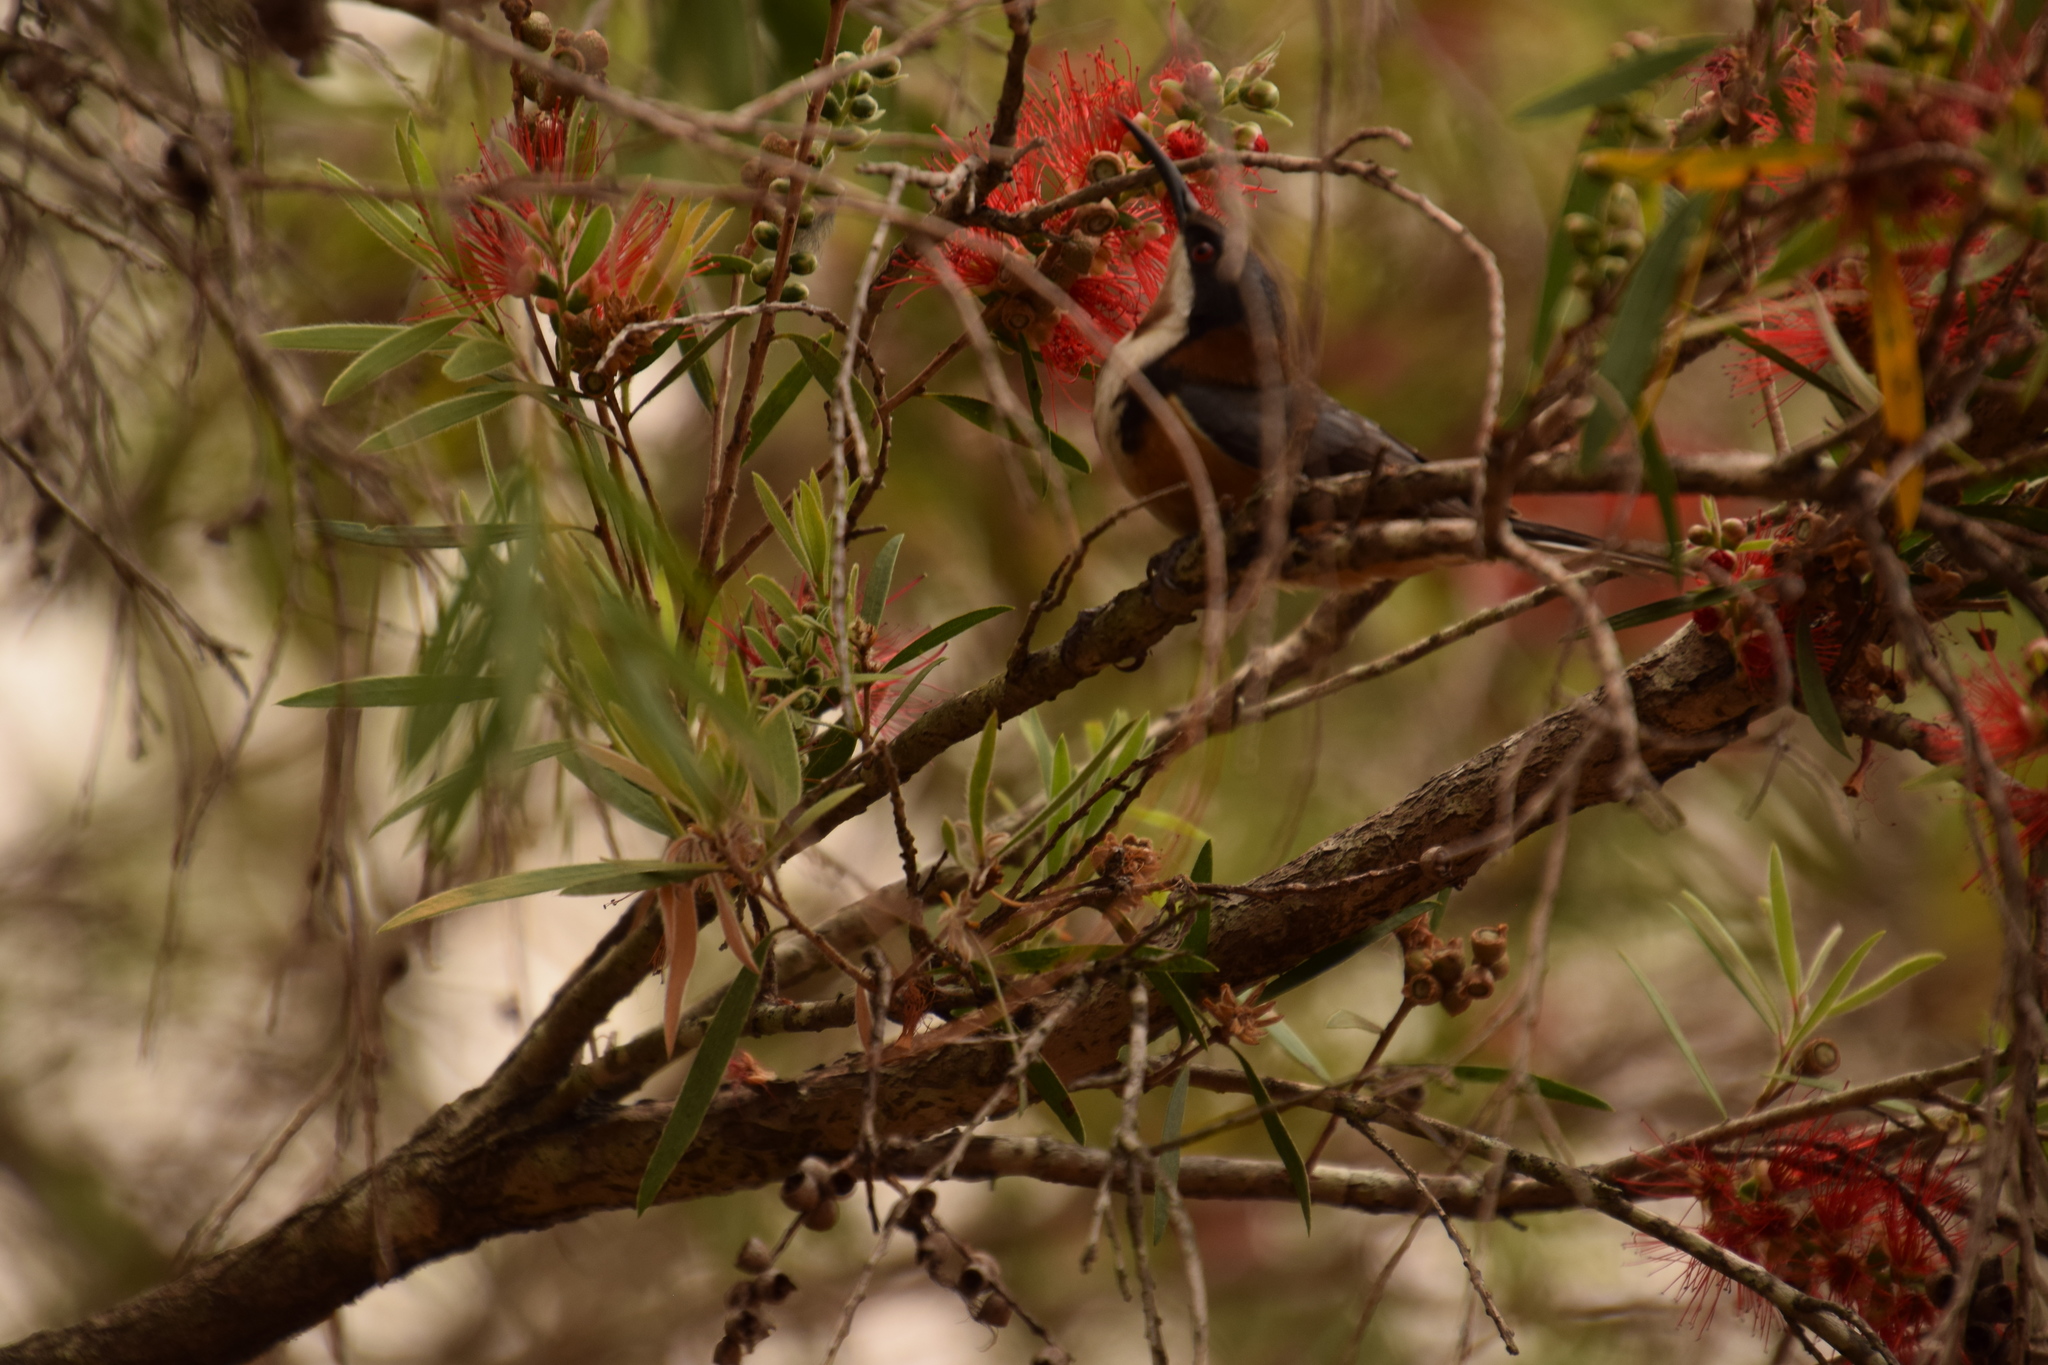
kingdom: Animalia
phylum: Chordata
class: Aves
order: Passeriformes
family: Meliphagidae
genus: Acanthorhynchus
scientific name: Acanthorhynchus tenuirostris
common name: Eastern spinebill
